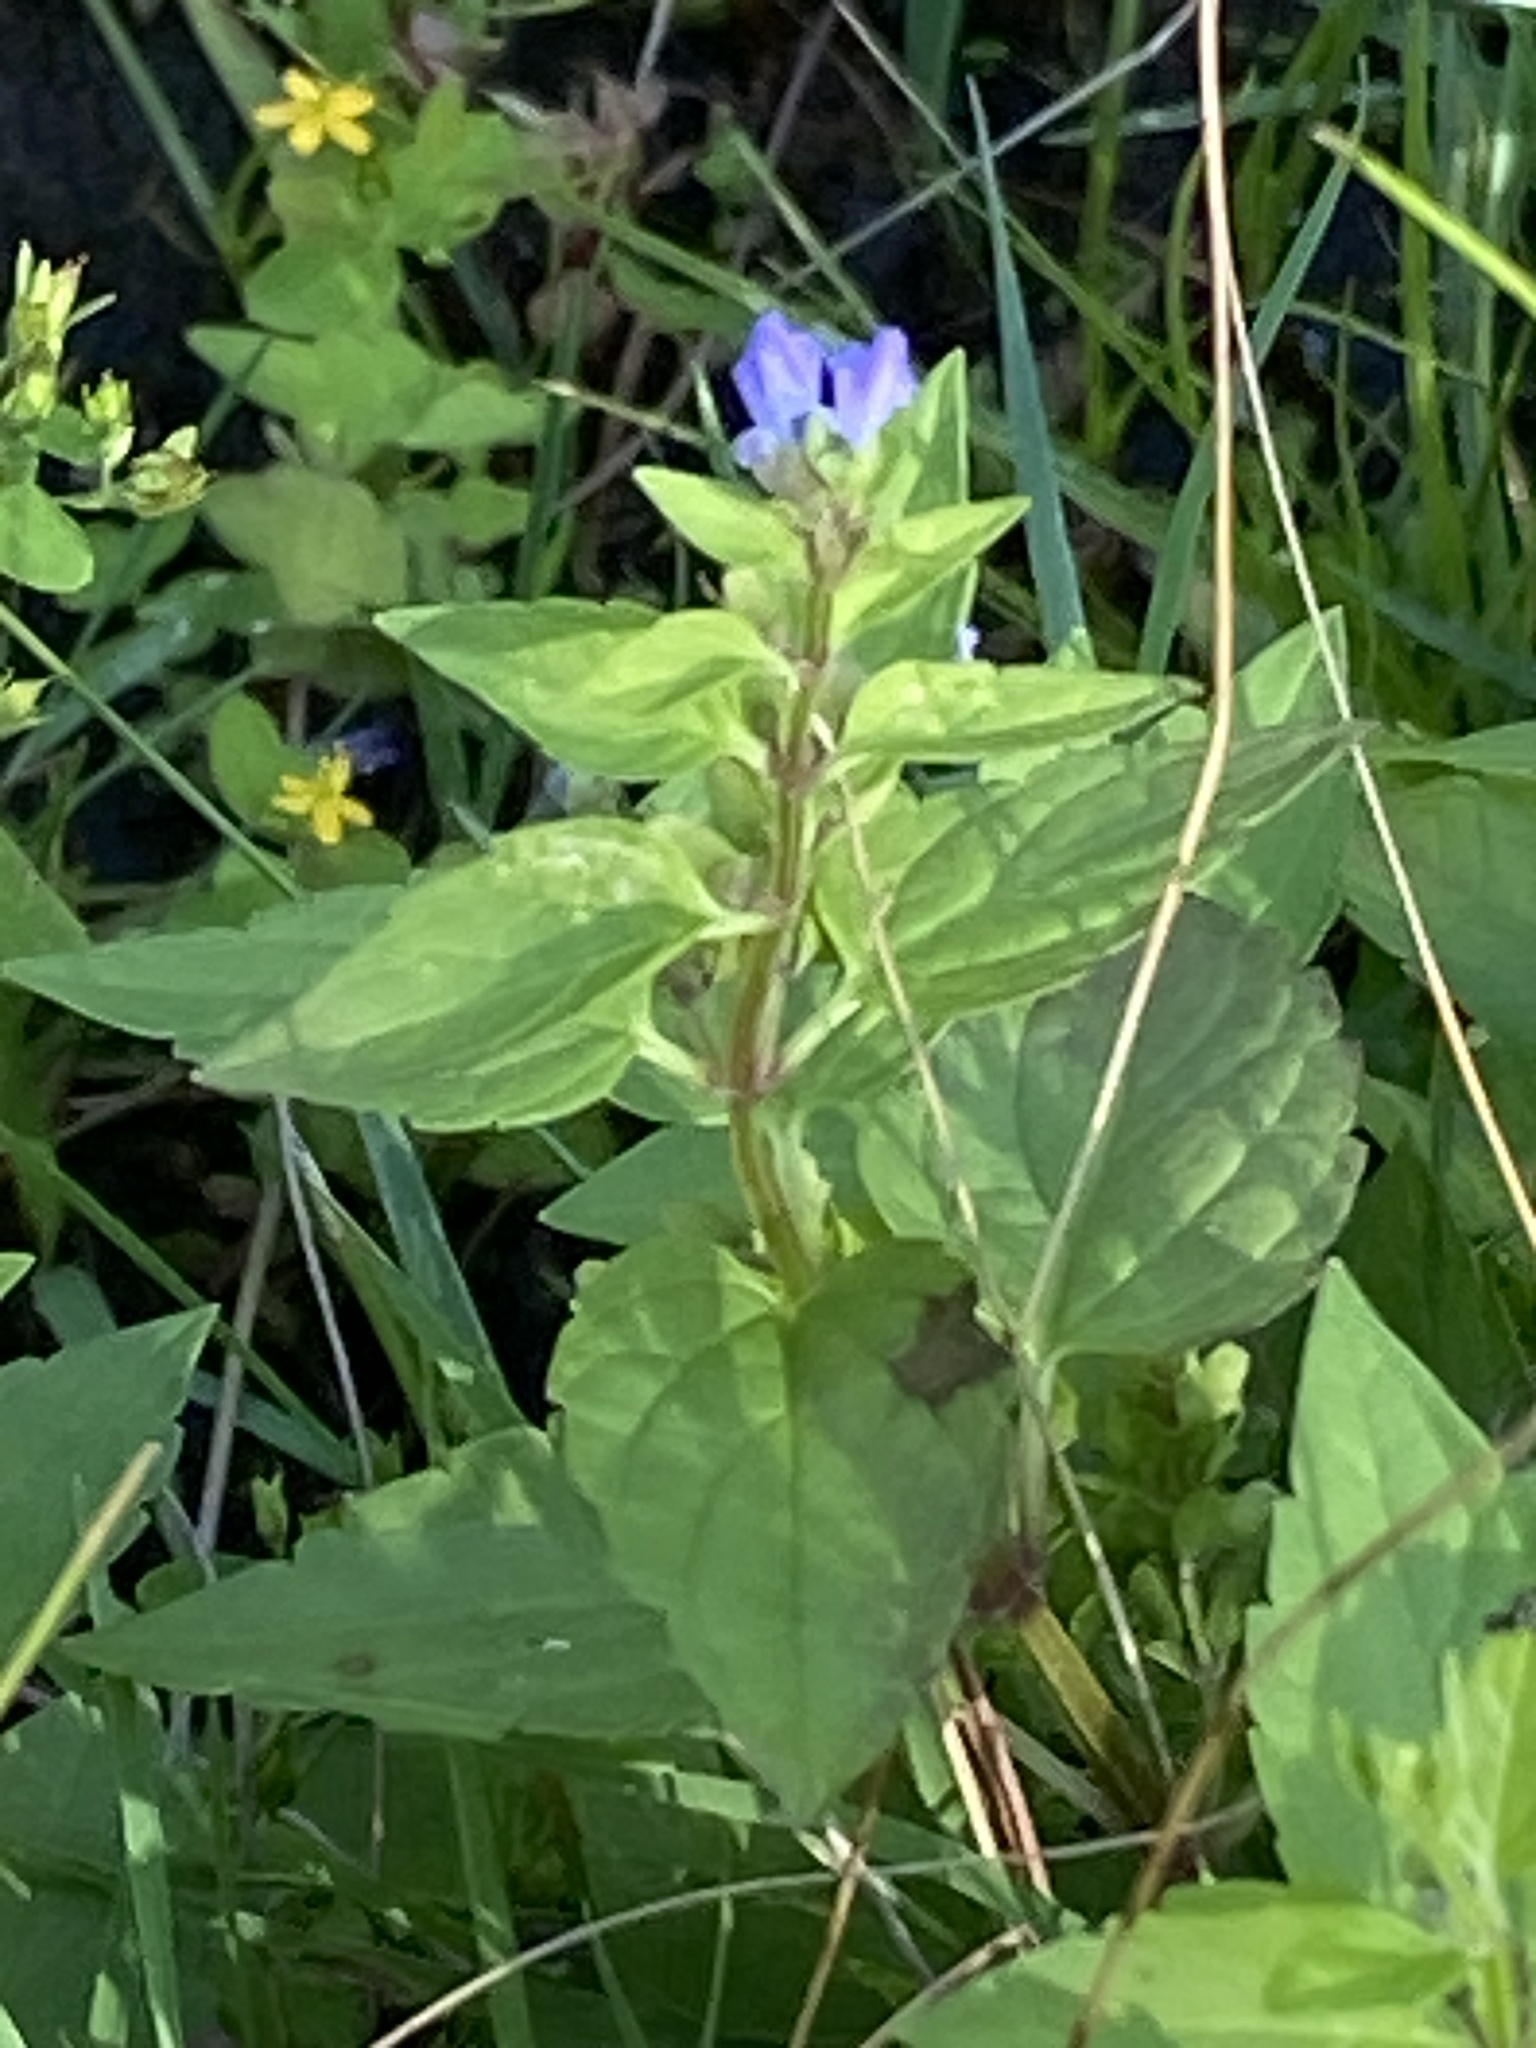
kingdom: Plantae
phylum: Tracheophyta
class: Magnoliopsida
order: Lamiales
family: Lamiaceae
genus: Scutellaria
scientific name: Scutellaria lateriflora
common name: Blue skullcap
